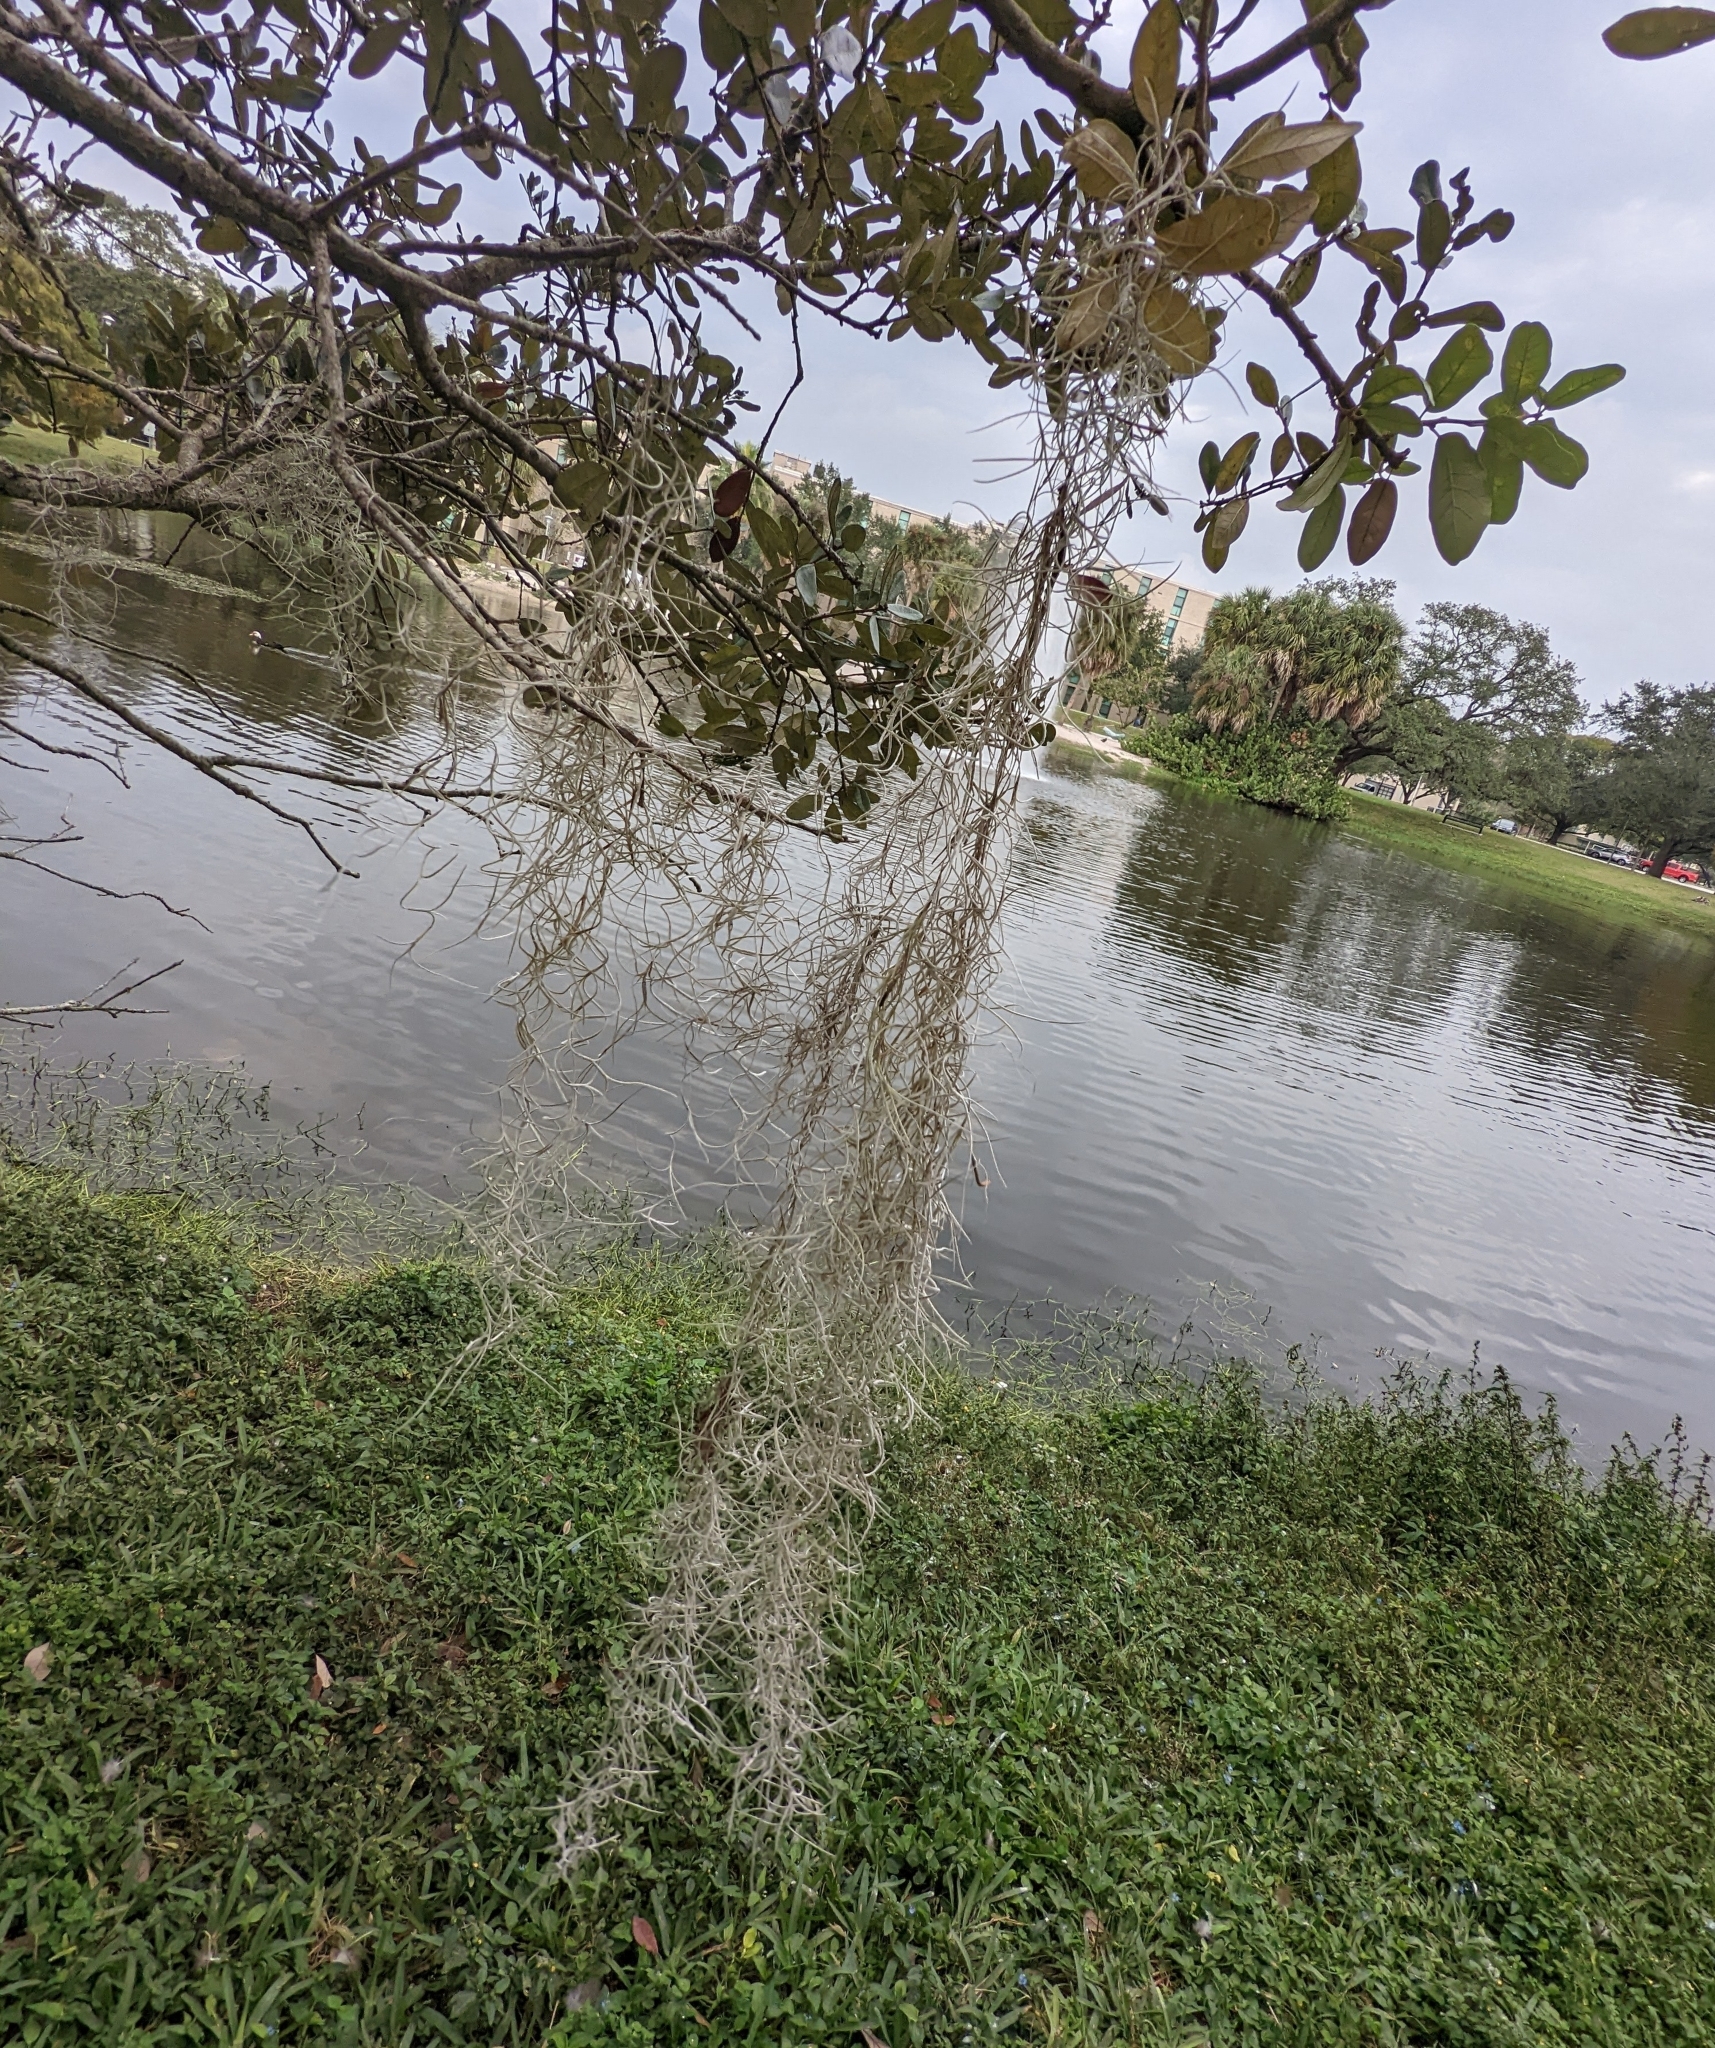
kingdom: Plantae
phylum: Tracheophyta
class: Liliopsida
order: Poales
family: Bromeliaceae
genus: Tillandsia
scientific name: Tillandsia usneoides
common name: Spanish moss
